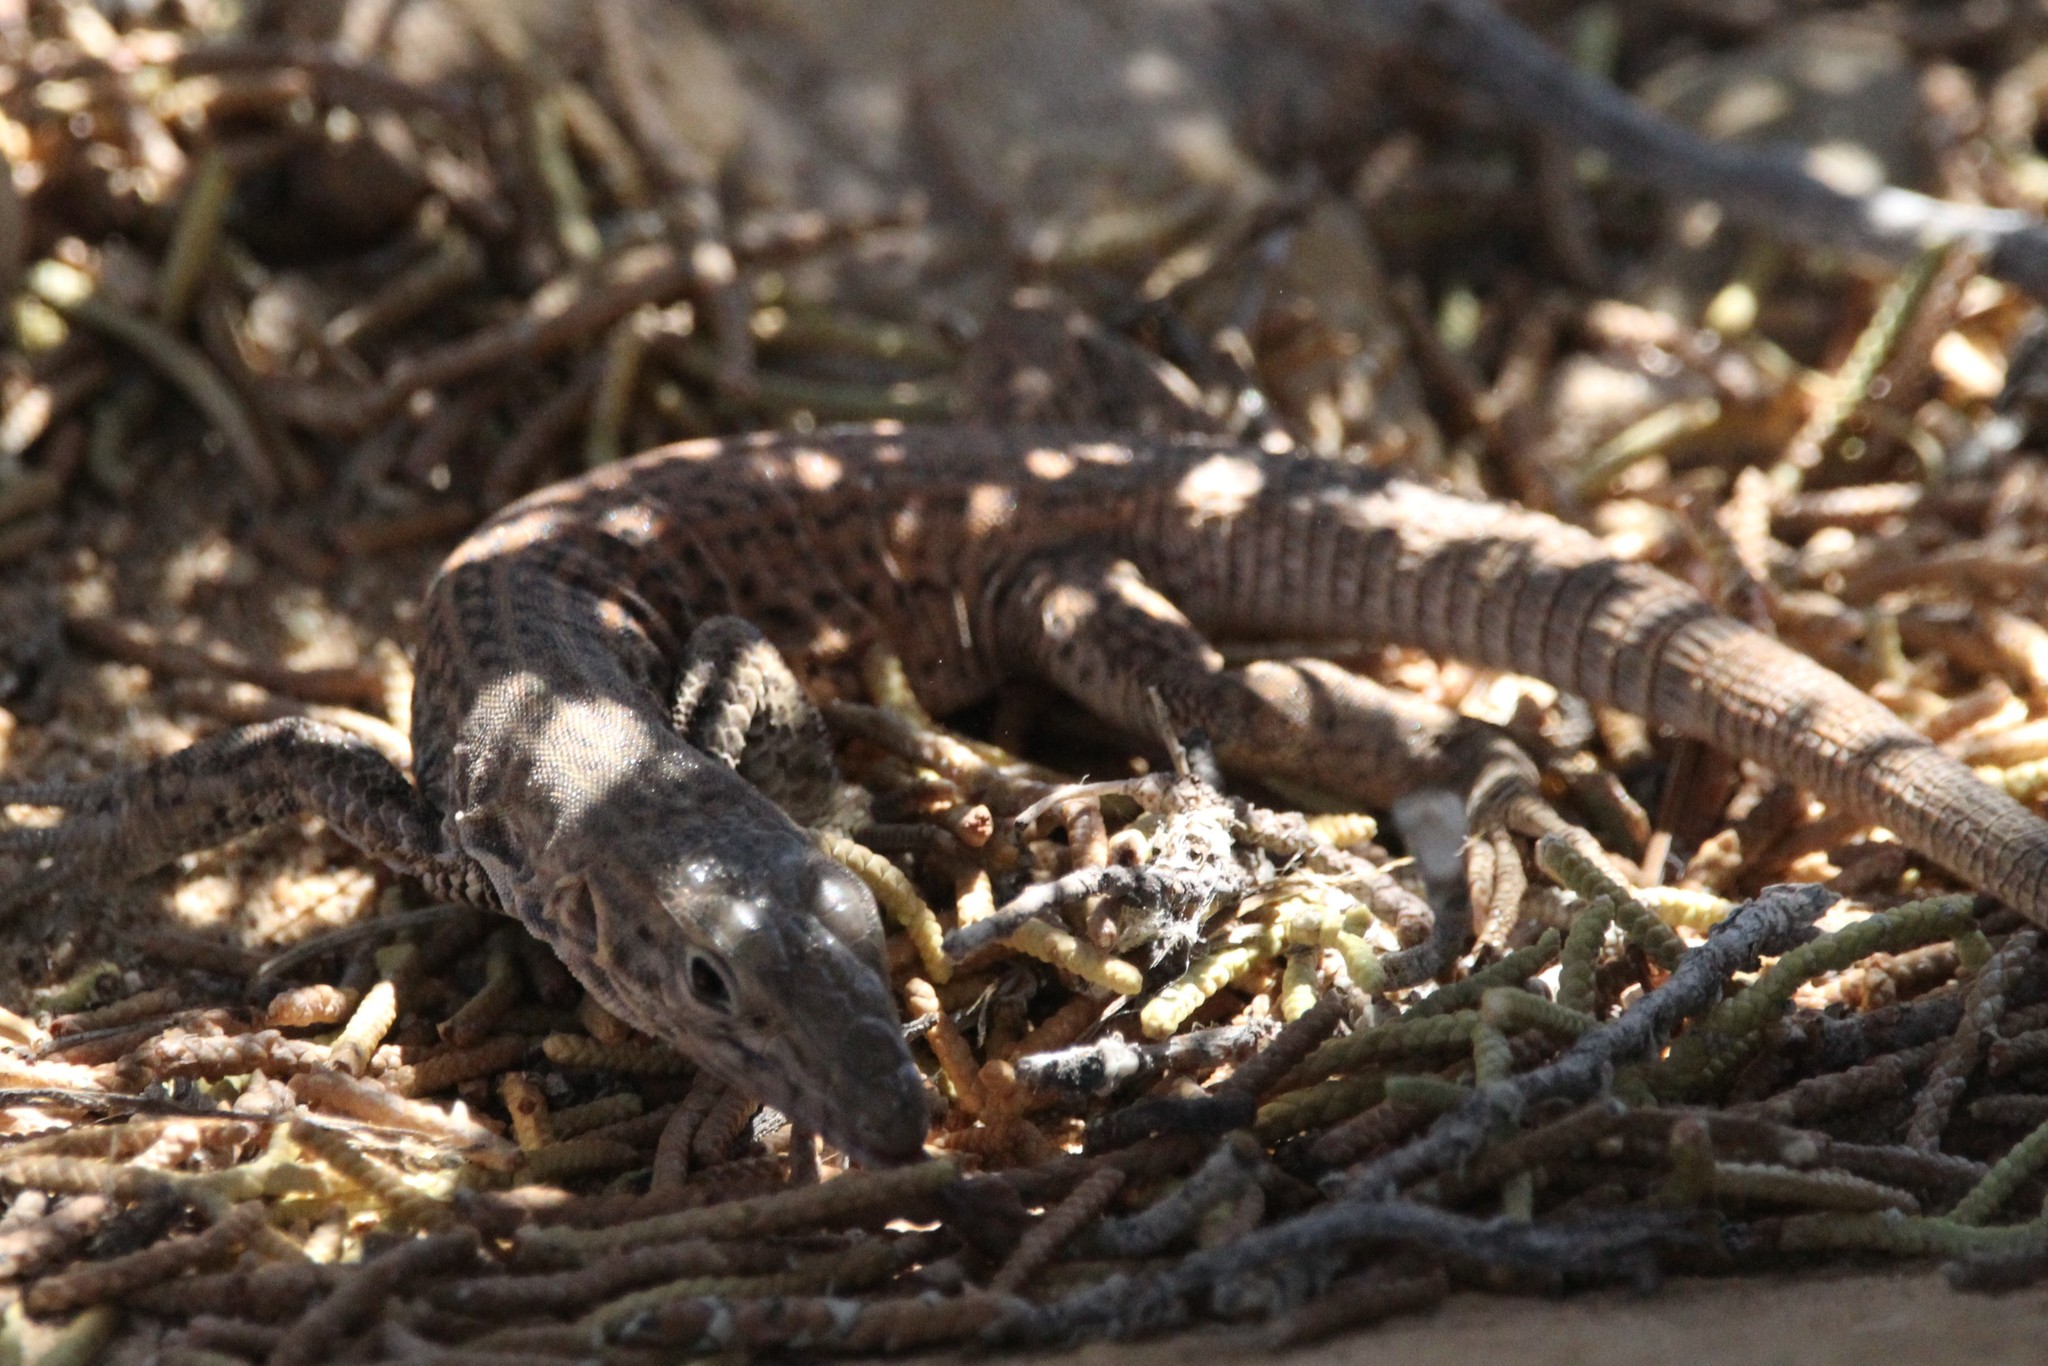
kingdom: Animalia
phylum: Chordata
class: Squamata
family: Teiidae
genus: Aspidoscelis
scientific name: Aspidoscelis tigris
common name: Tiger whiptail
